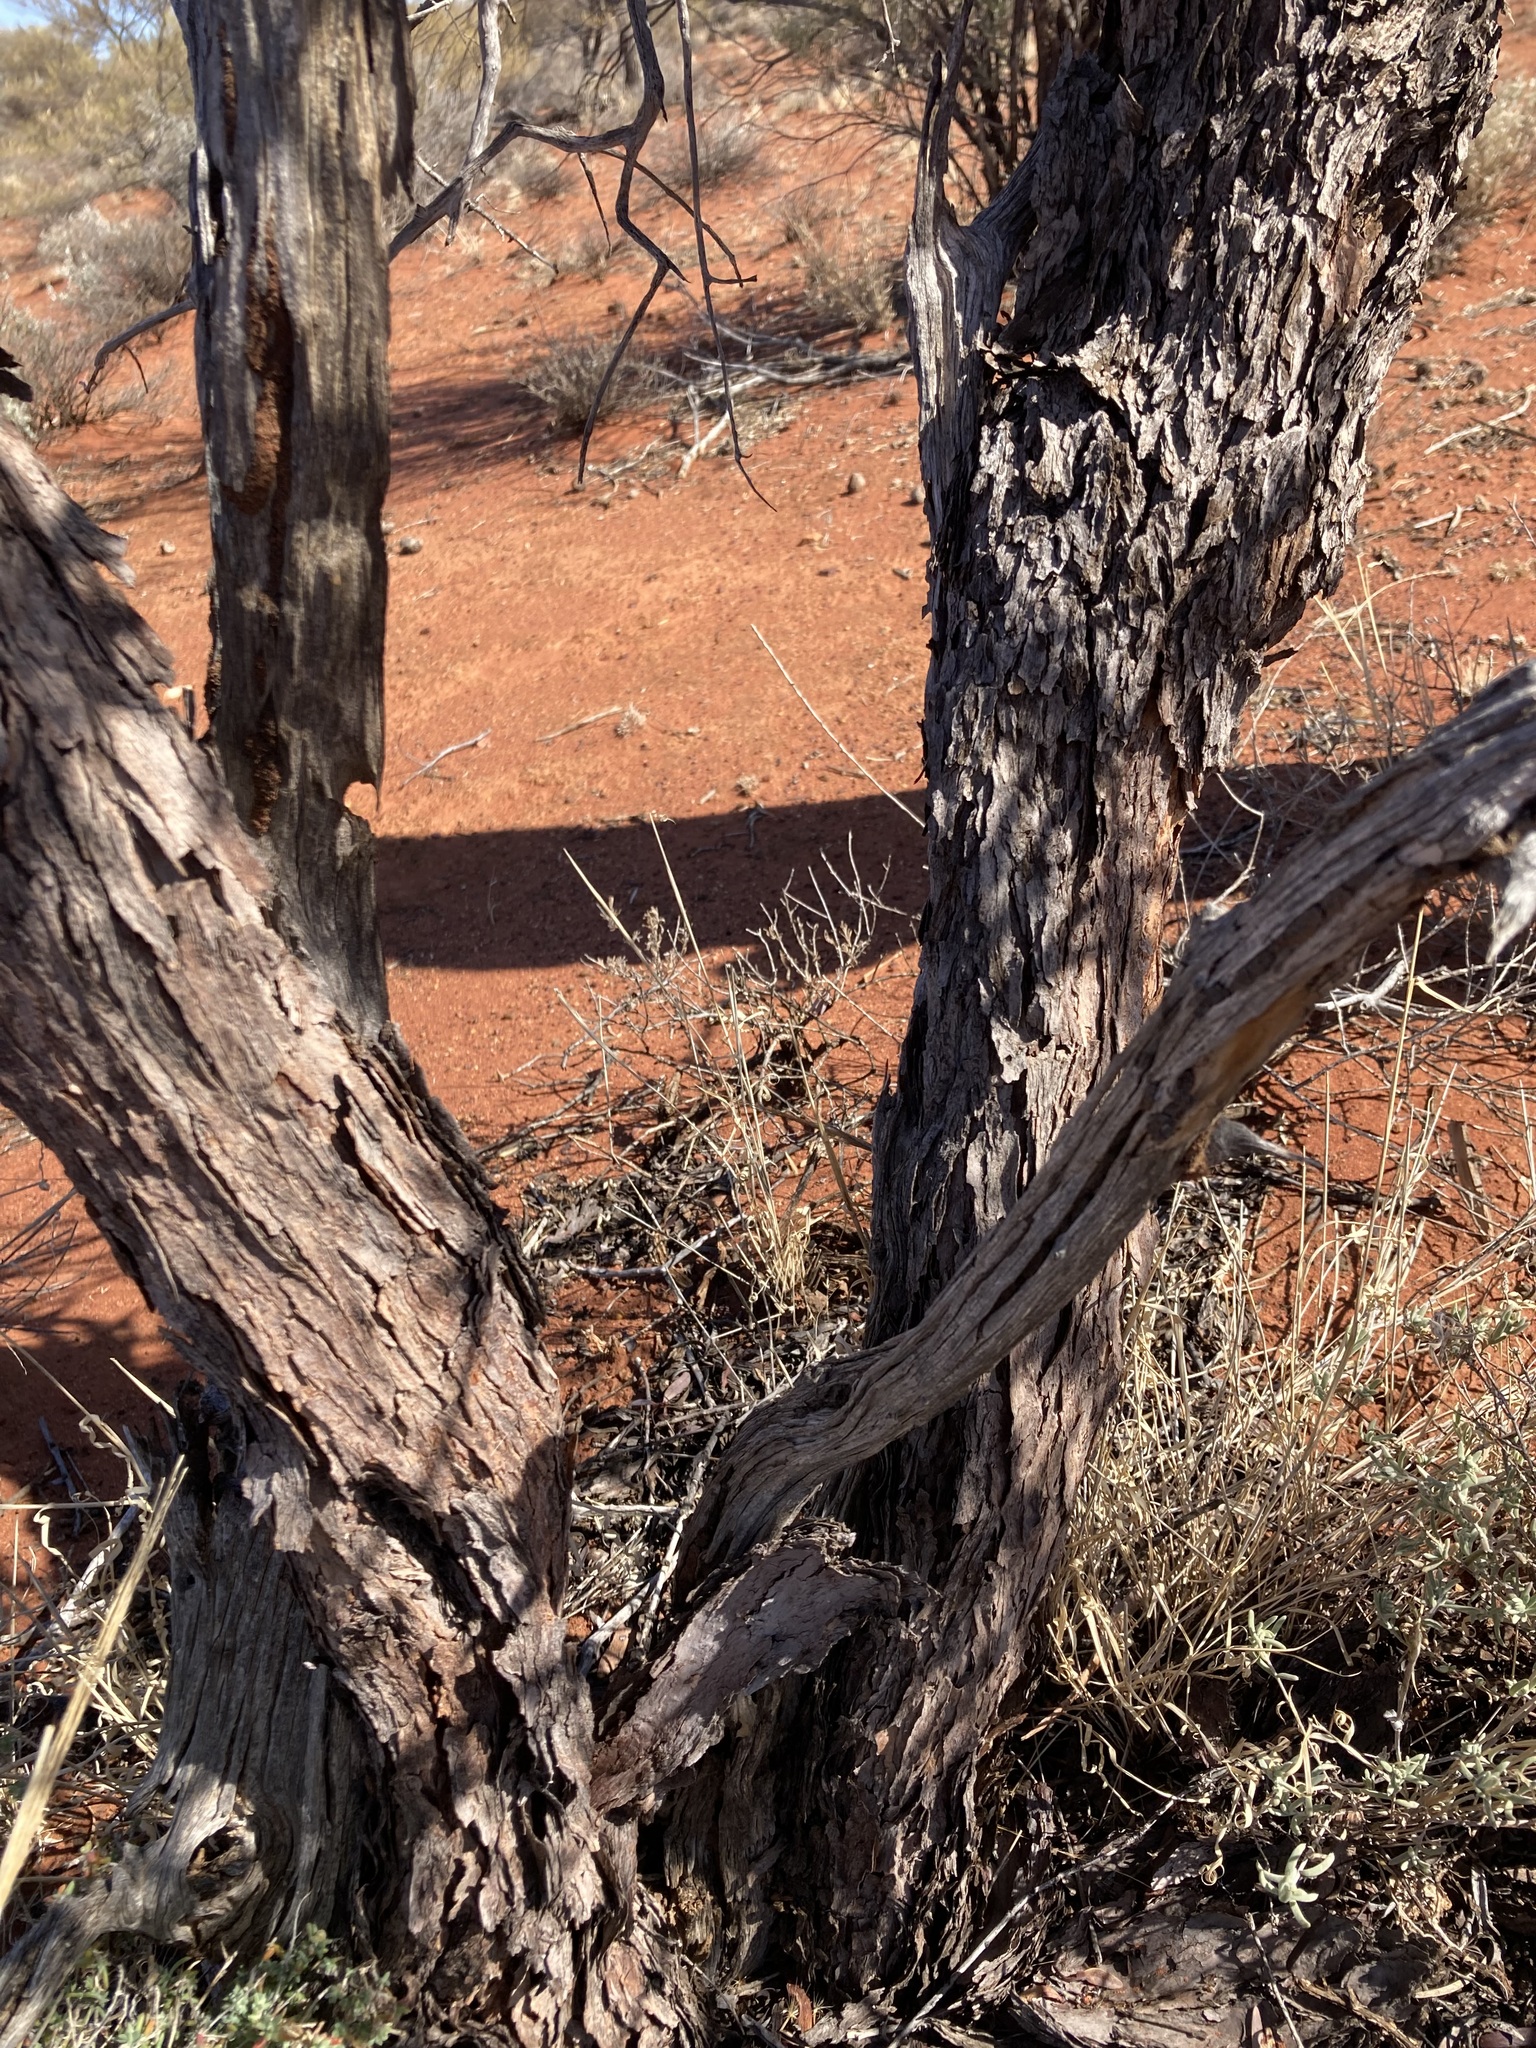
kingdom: Plantae
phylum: Tracheophyta
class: Magnoliopsida
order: Santalales
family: Santalaceae
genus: Santalum
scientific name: Santalum spicatum
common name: West australian sandalwood
